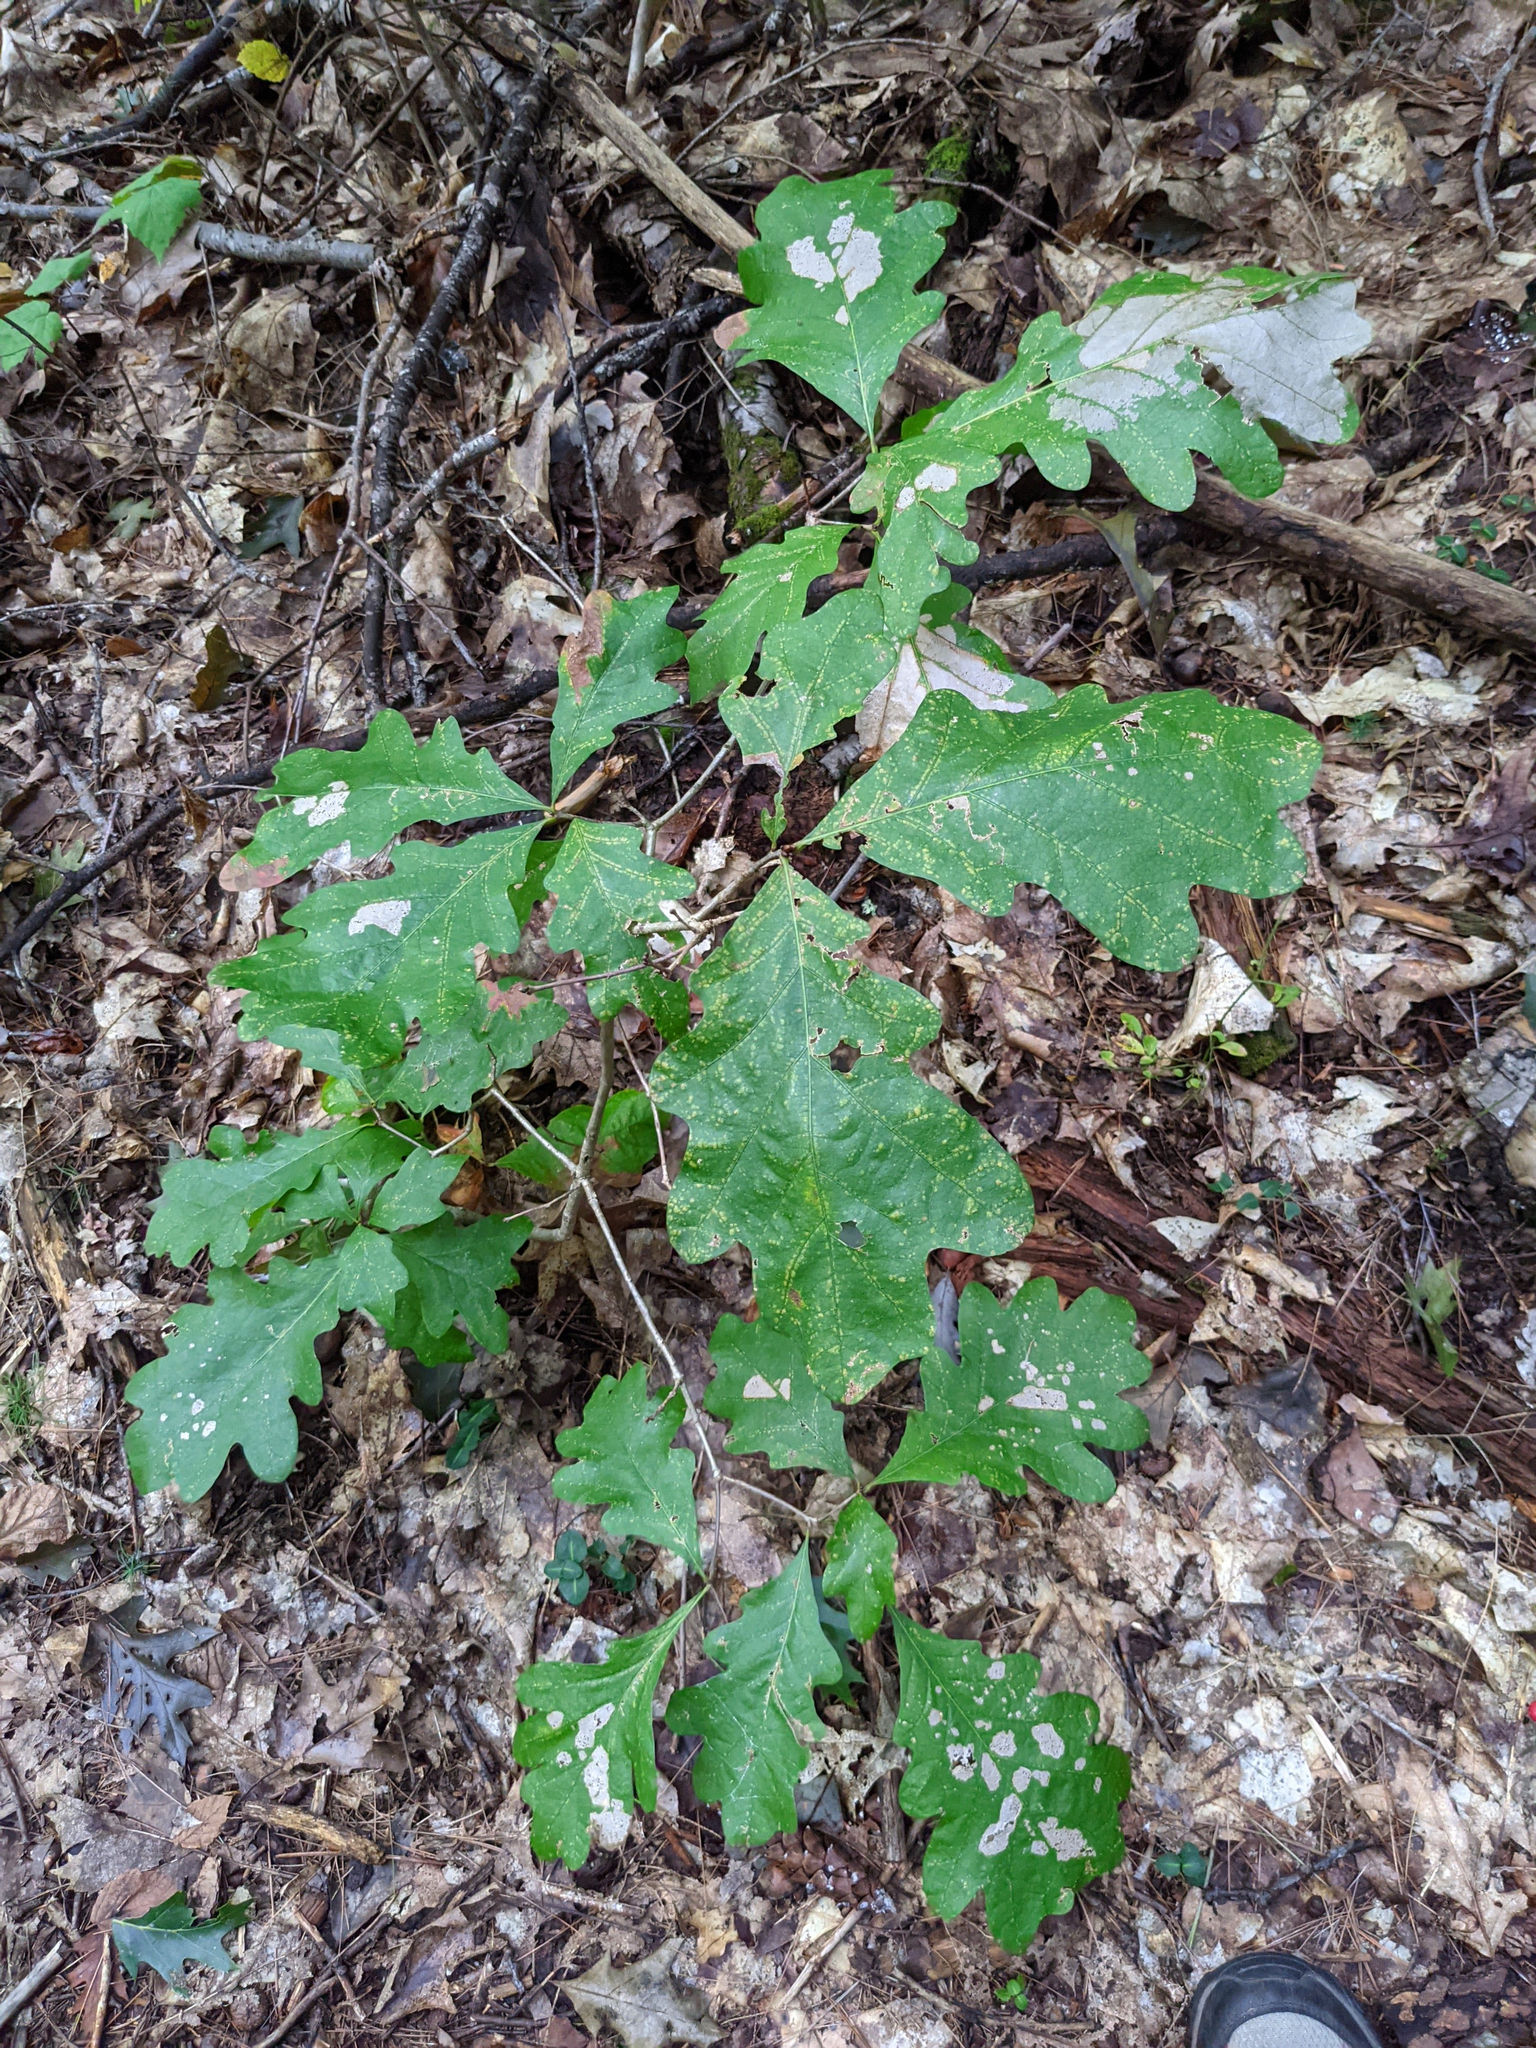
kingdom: Plantae
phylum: Tracheophyta
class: Magnoliopsida
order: Fagales
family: Fagaceae
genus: Quercus
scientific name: Quercus alba
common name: White oak
